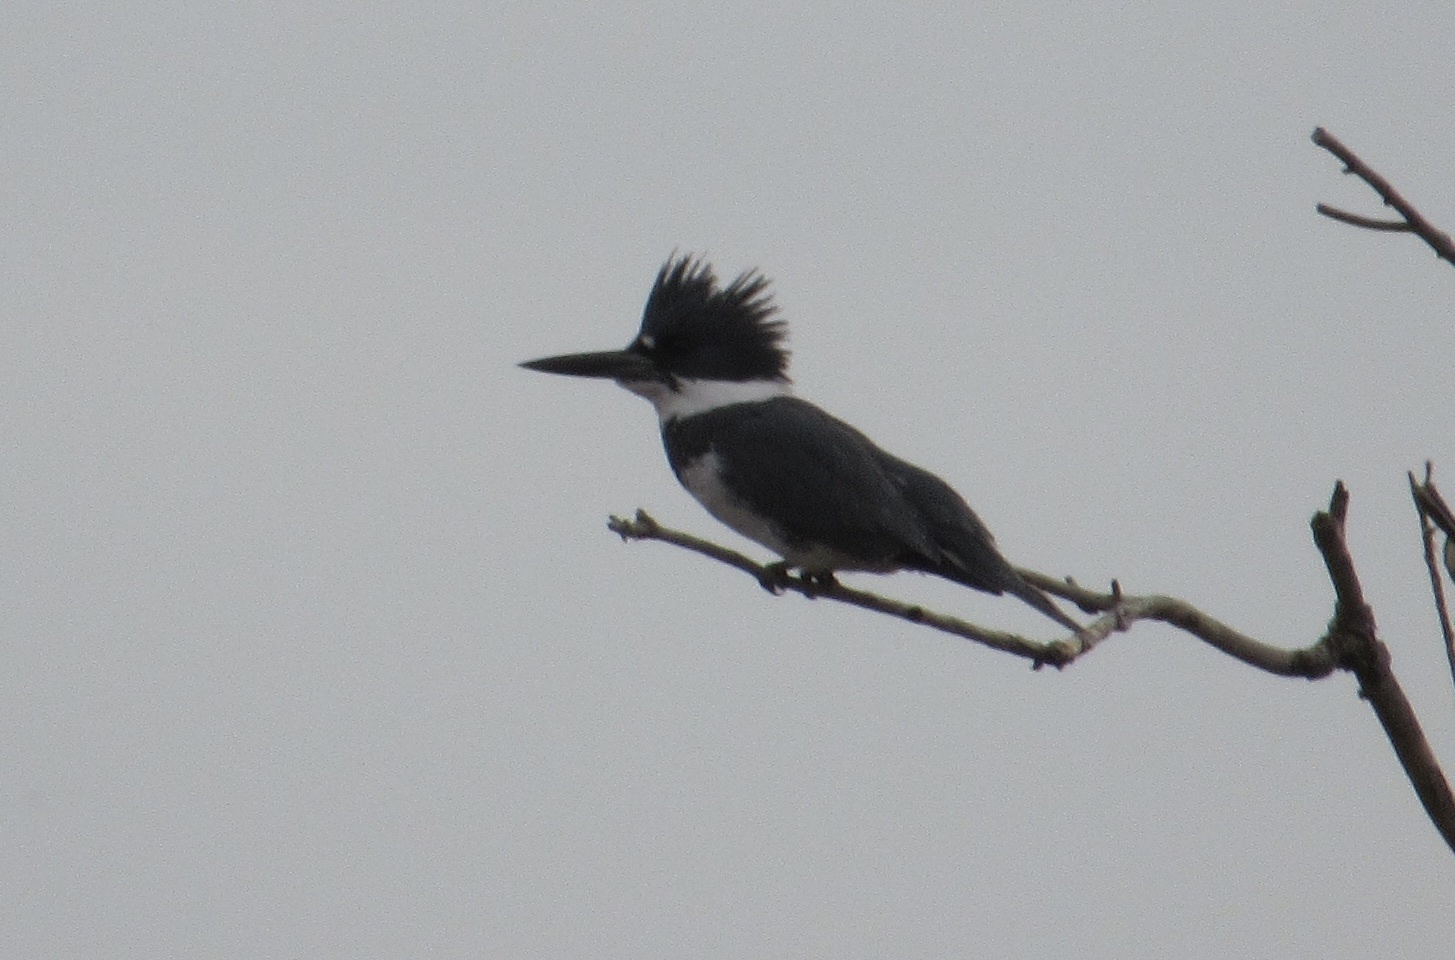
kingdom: Animalia
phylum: Chordata
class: Aves
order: Coraciiformes
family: Alcedinidae
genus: Megaceryle
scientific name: Megaceryle alcyon
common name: Belted kingfisher
